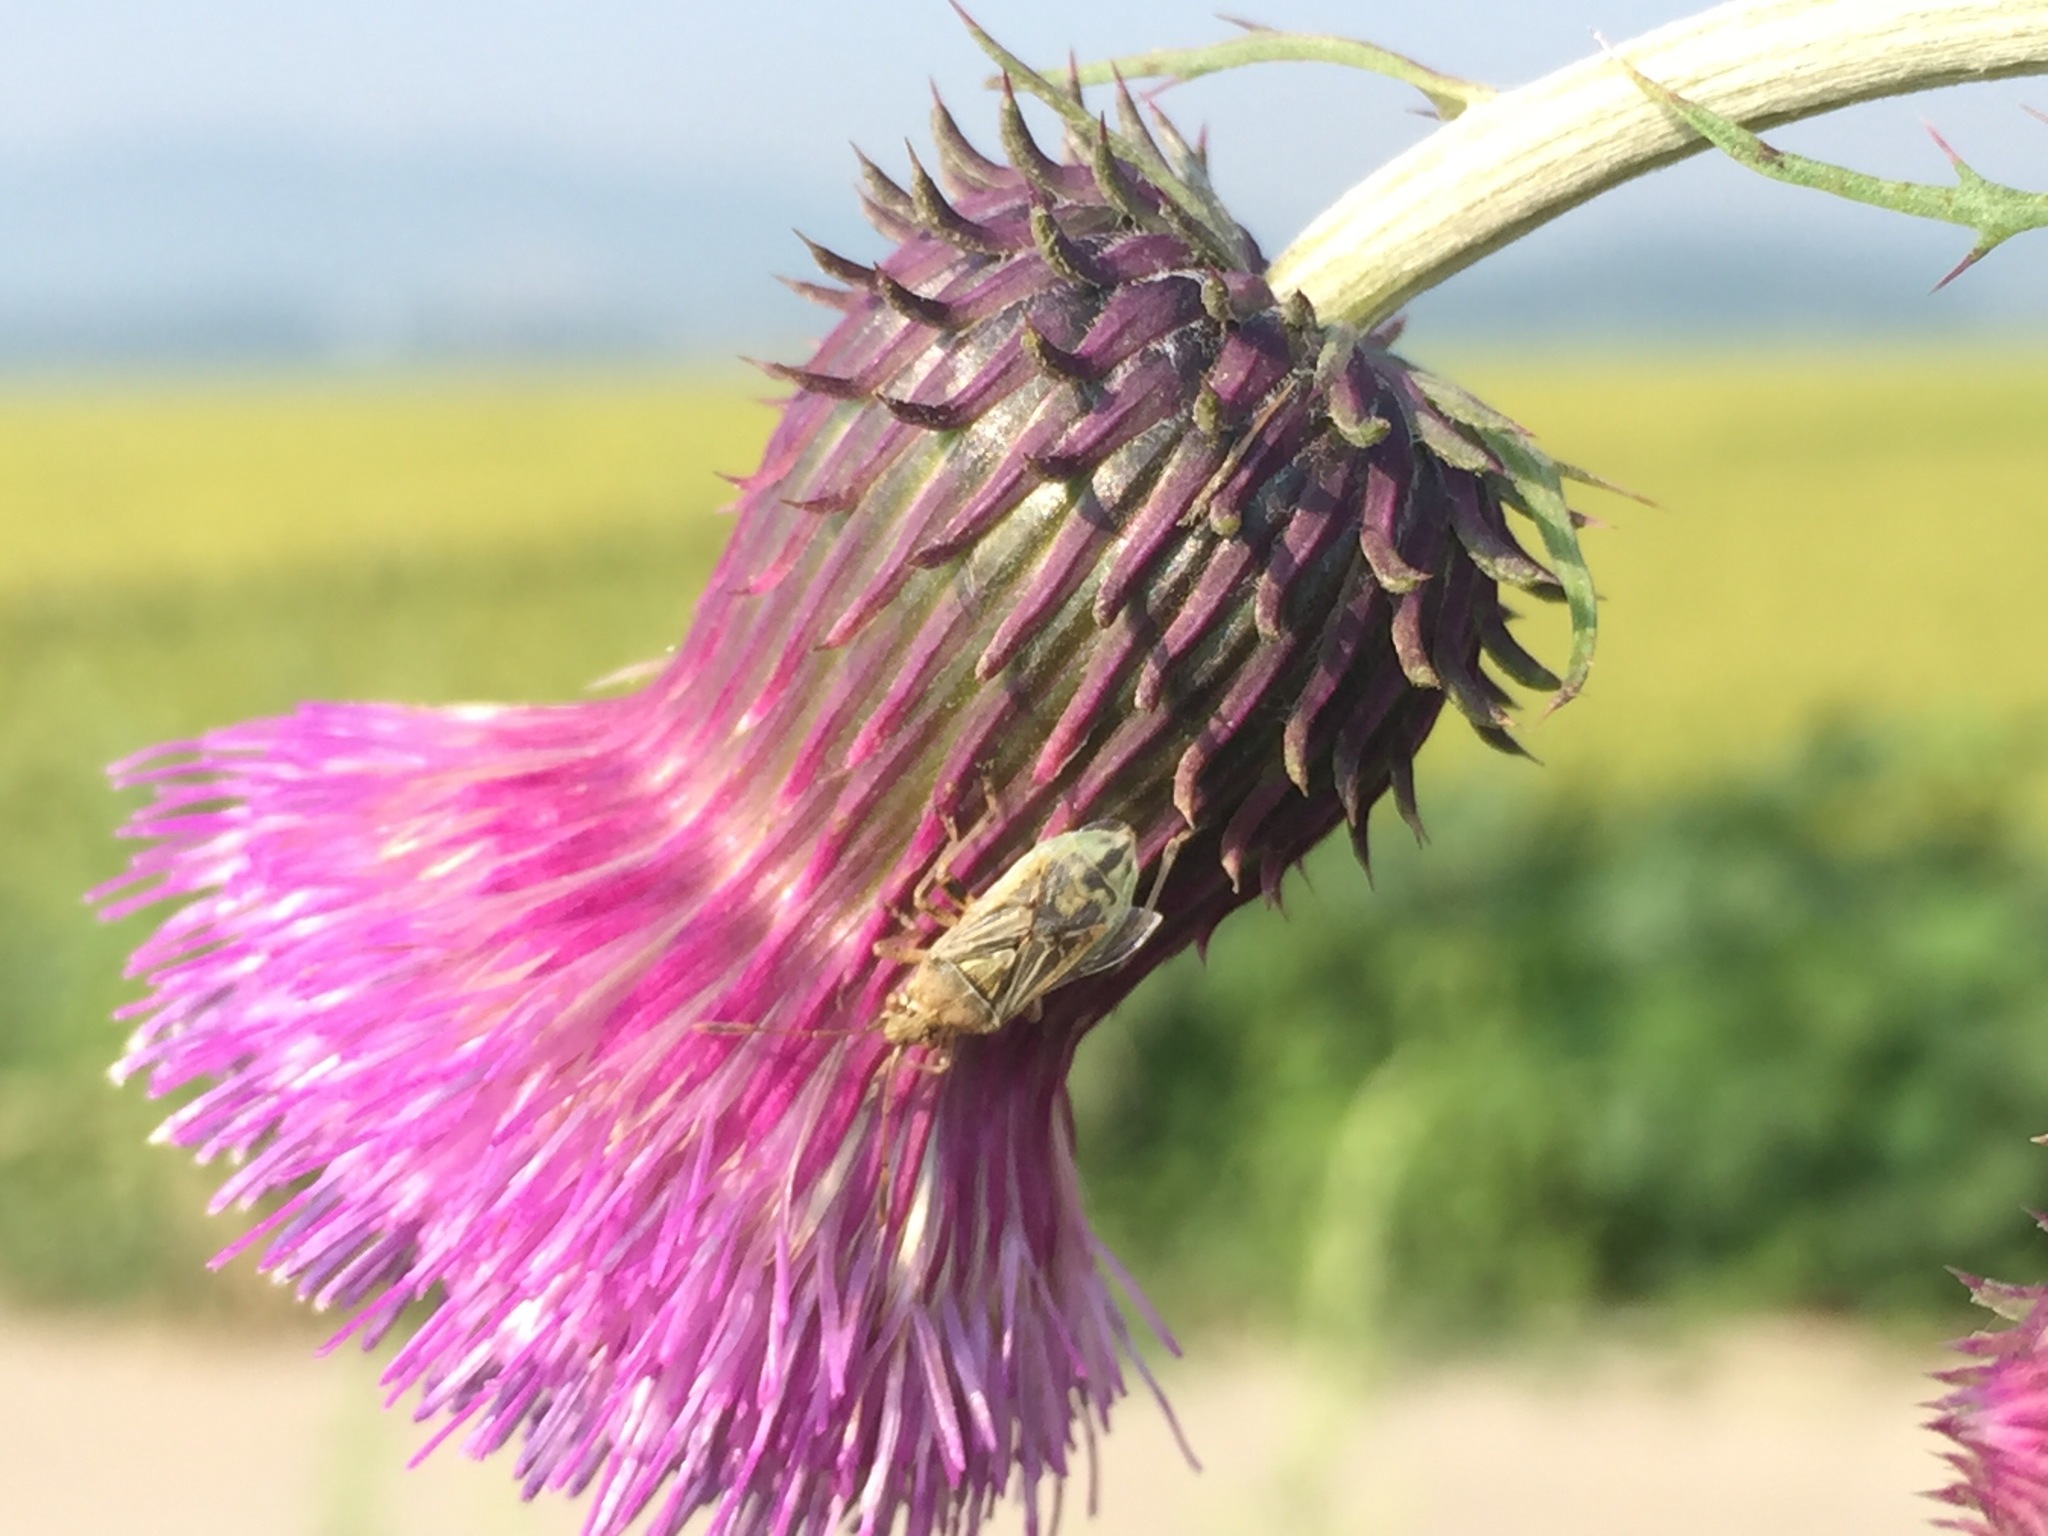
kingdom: Animalia
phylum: Arthropoda
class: Insecta
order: Hemiptera
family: Rhopalidae
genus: Stictopleurus
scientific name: Stictopleurus minutus
